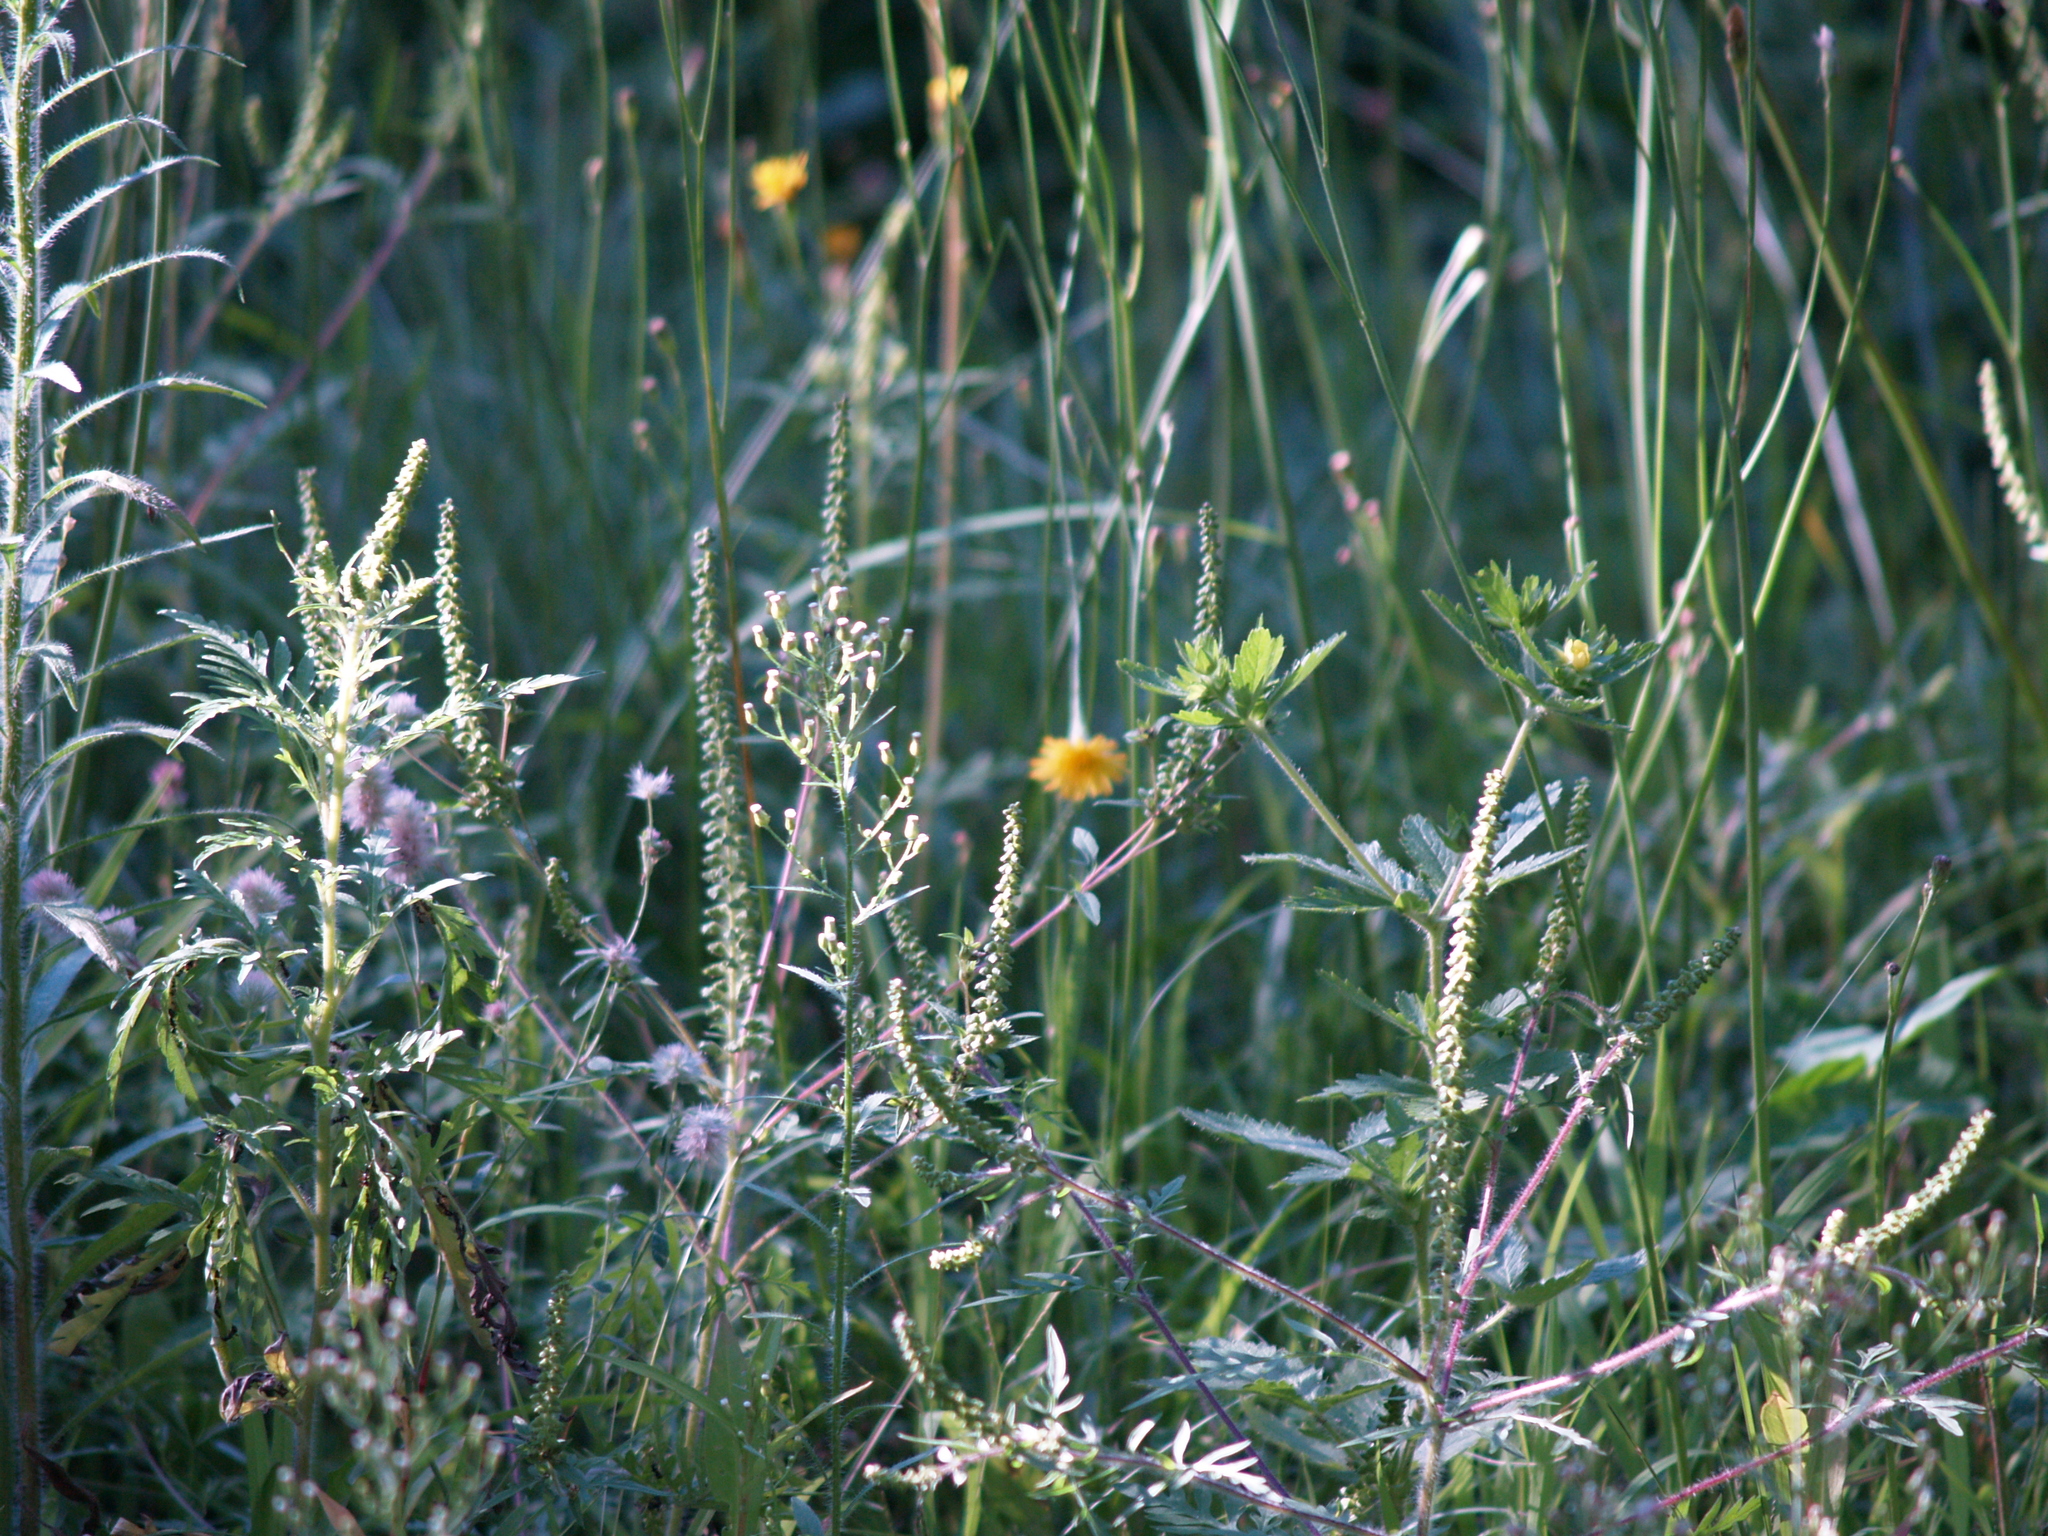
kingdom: Plantae
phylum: Tracheophyta
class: Magnoliopsida
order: Asterales
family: Asteraceae
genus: Ambrosia
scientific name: Ambrosia artemisiifolia
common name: Annual ragweed
